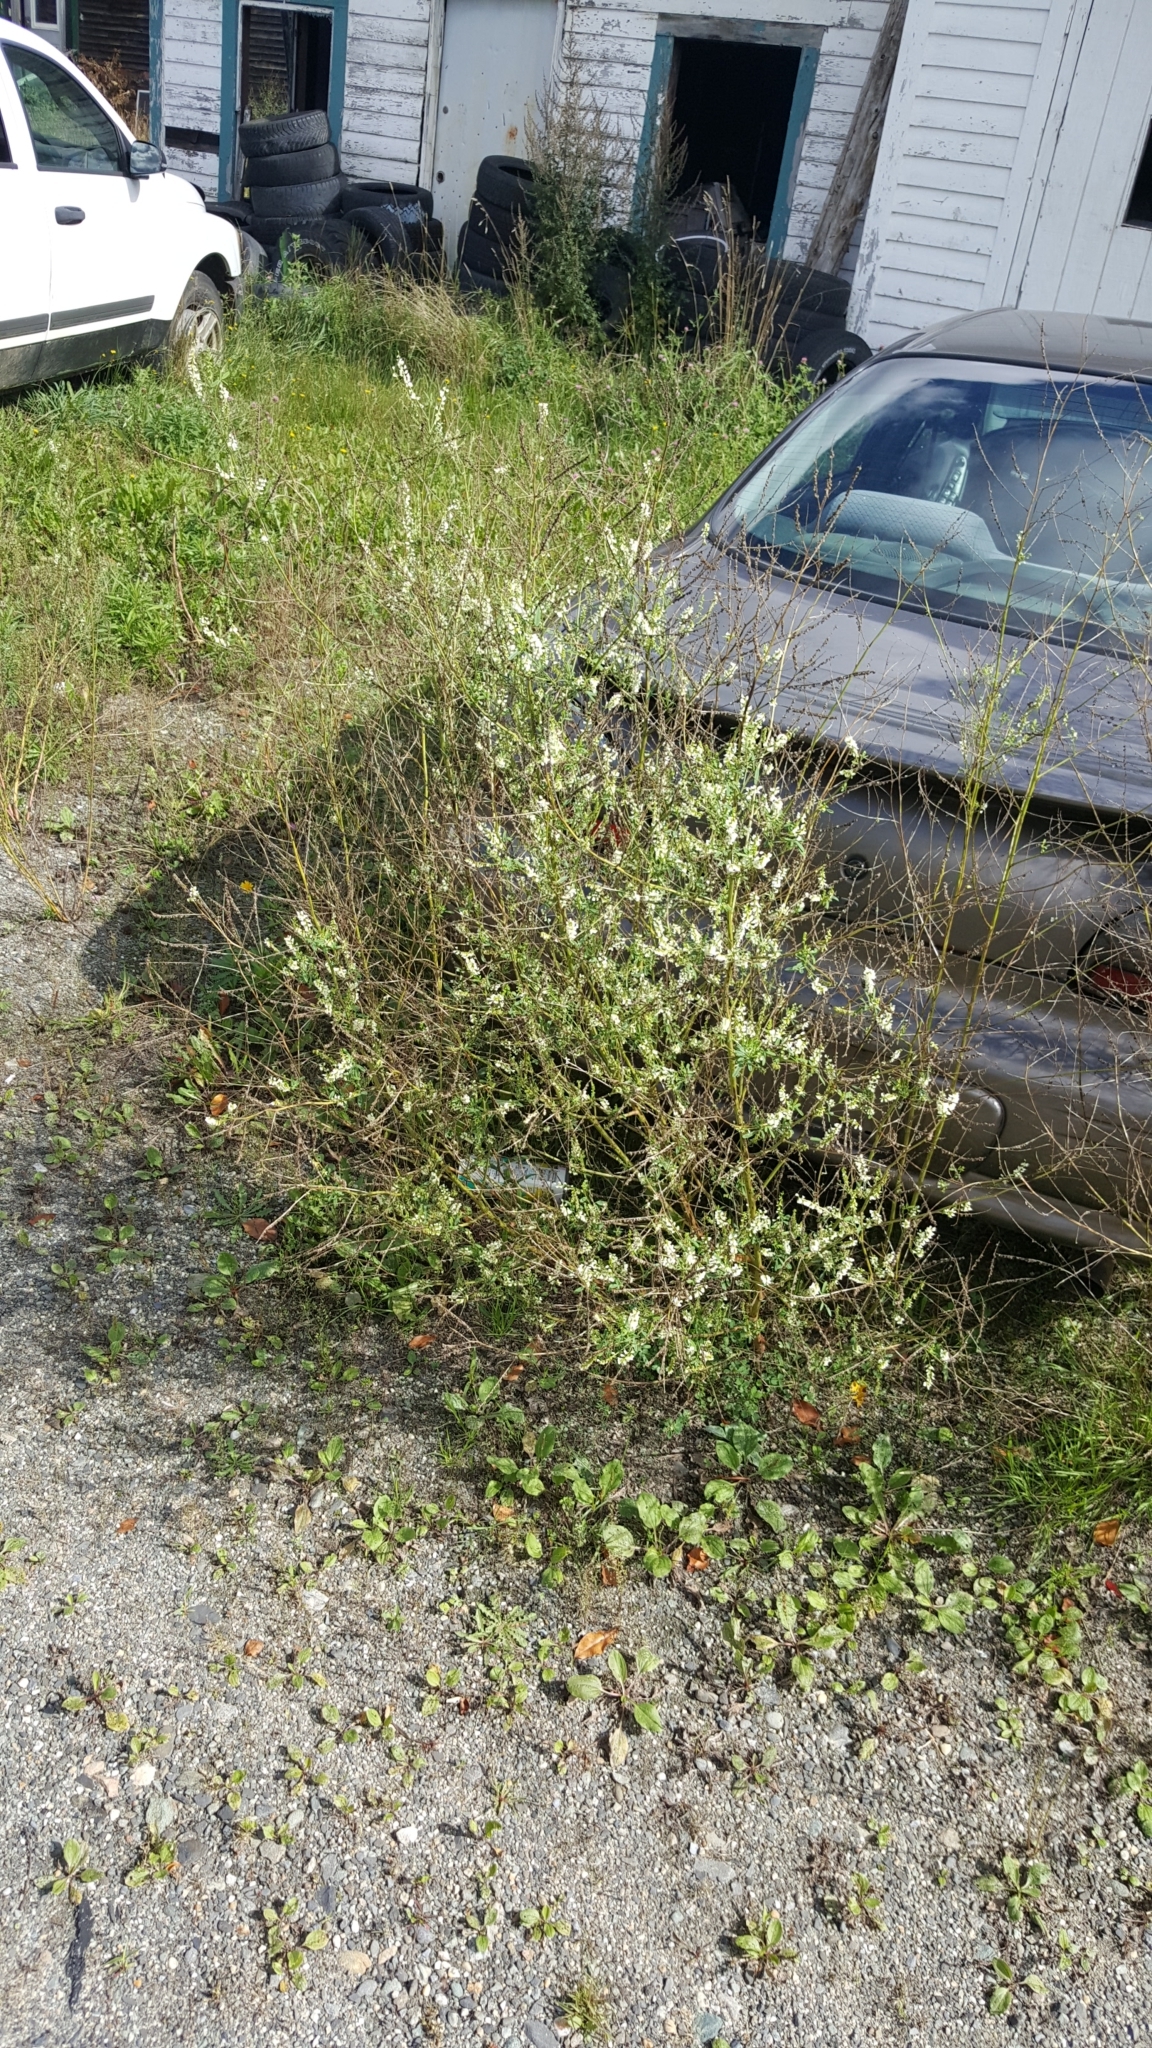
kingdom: Plantae
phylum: Tracheophyta
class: Magnoliopsida
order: Fabales
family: Fabaceae
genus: Melilotus
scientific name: Melilotus albus
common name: White melilot
